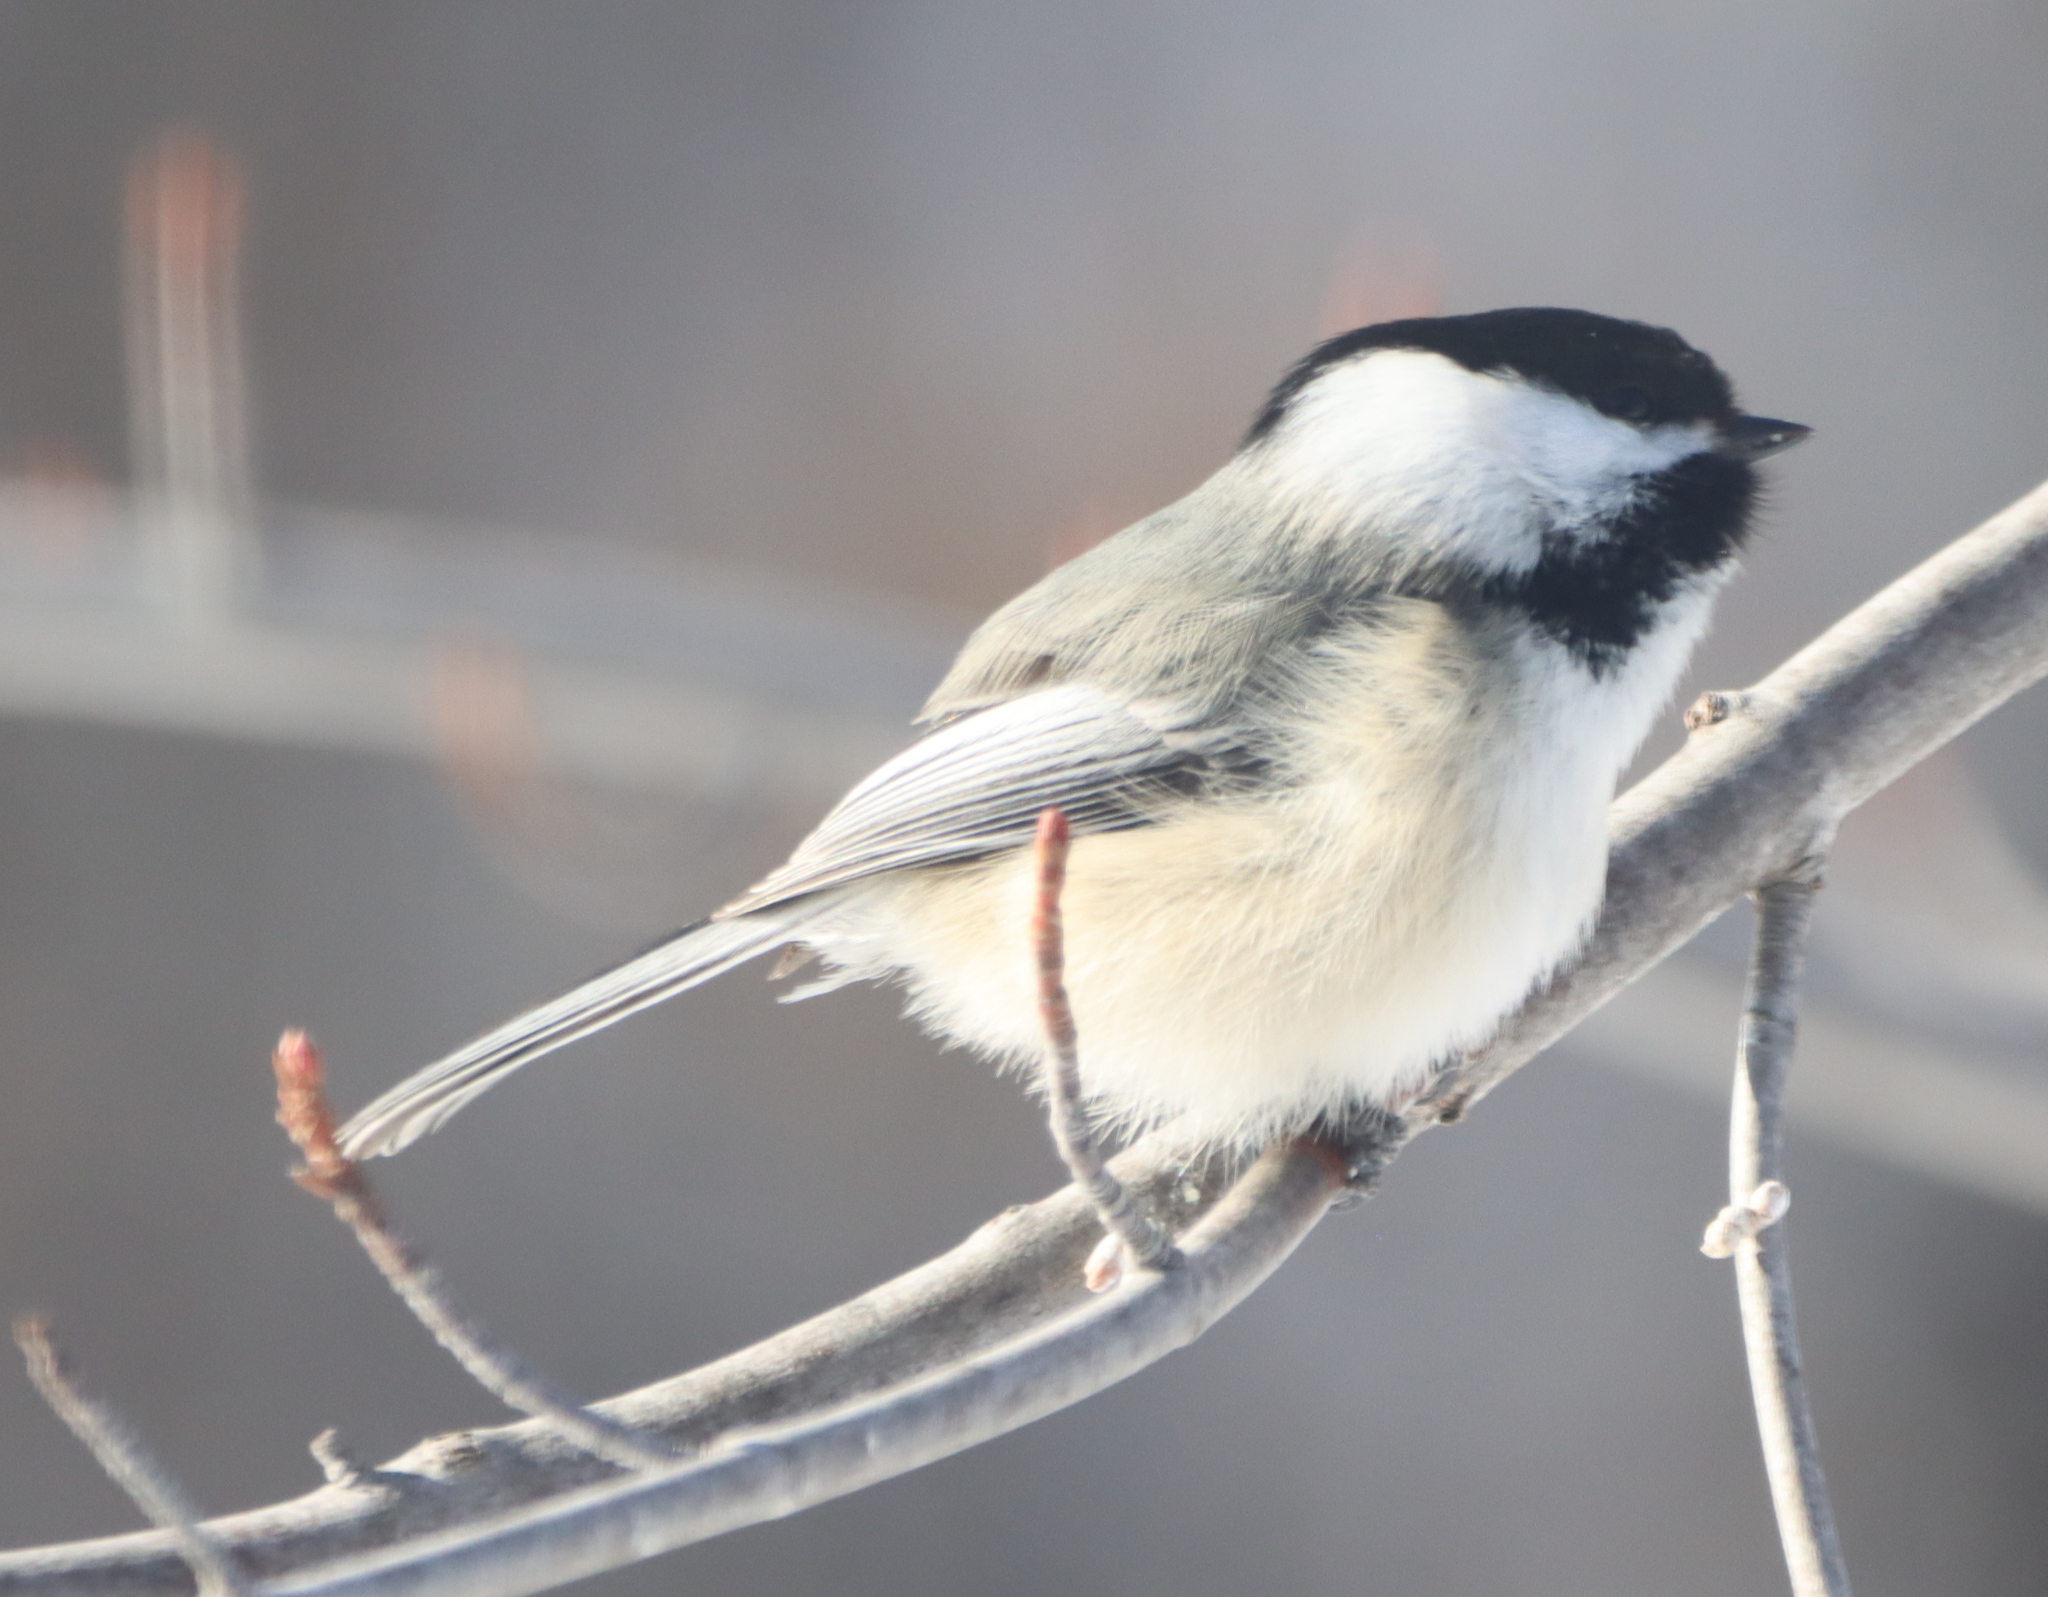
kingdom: Animalia
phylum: Chordata
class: Aves
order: Passeriformes
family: Paridae
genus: Poecile
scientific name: Poecile atricapillus
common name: Black-capped chickadee
